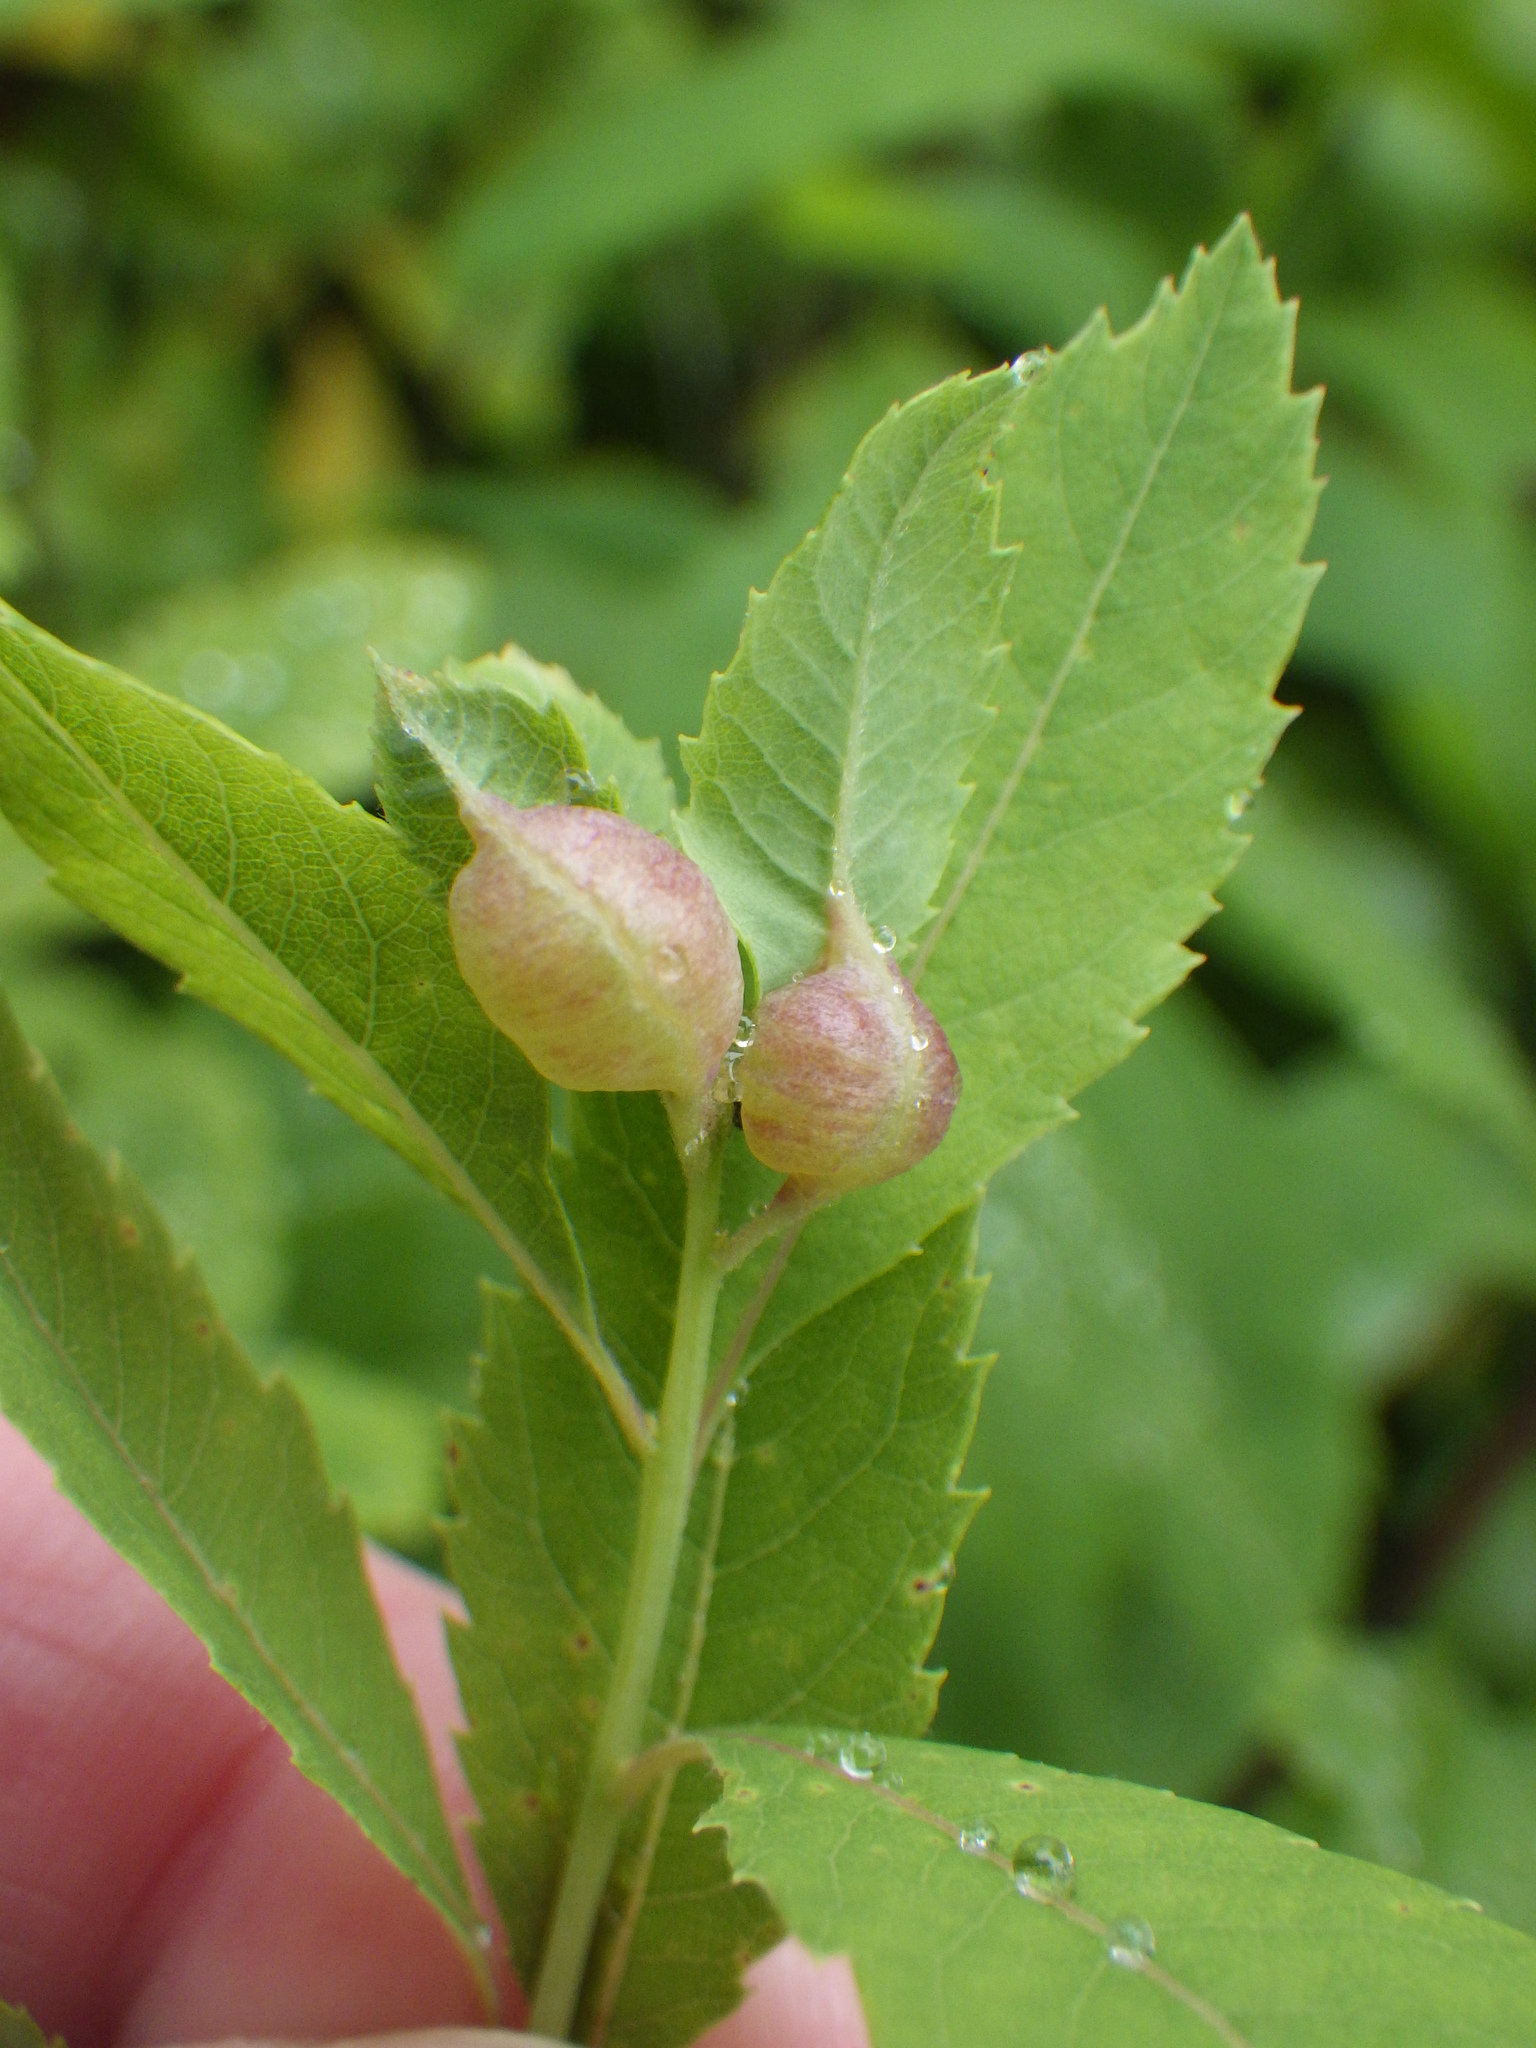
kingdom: Animalia
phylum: Arthropoda
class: Insecta
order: Diptera
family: Cecidomyiidae
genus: Dasineura
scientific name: Dasineura salicifoliae
